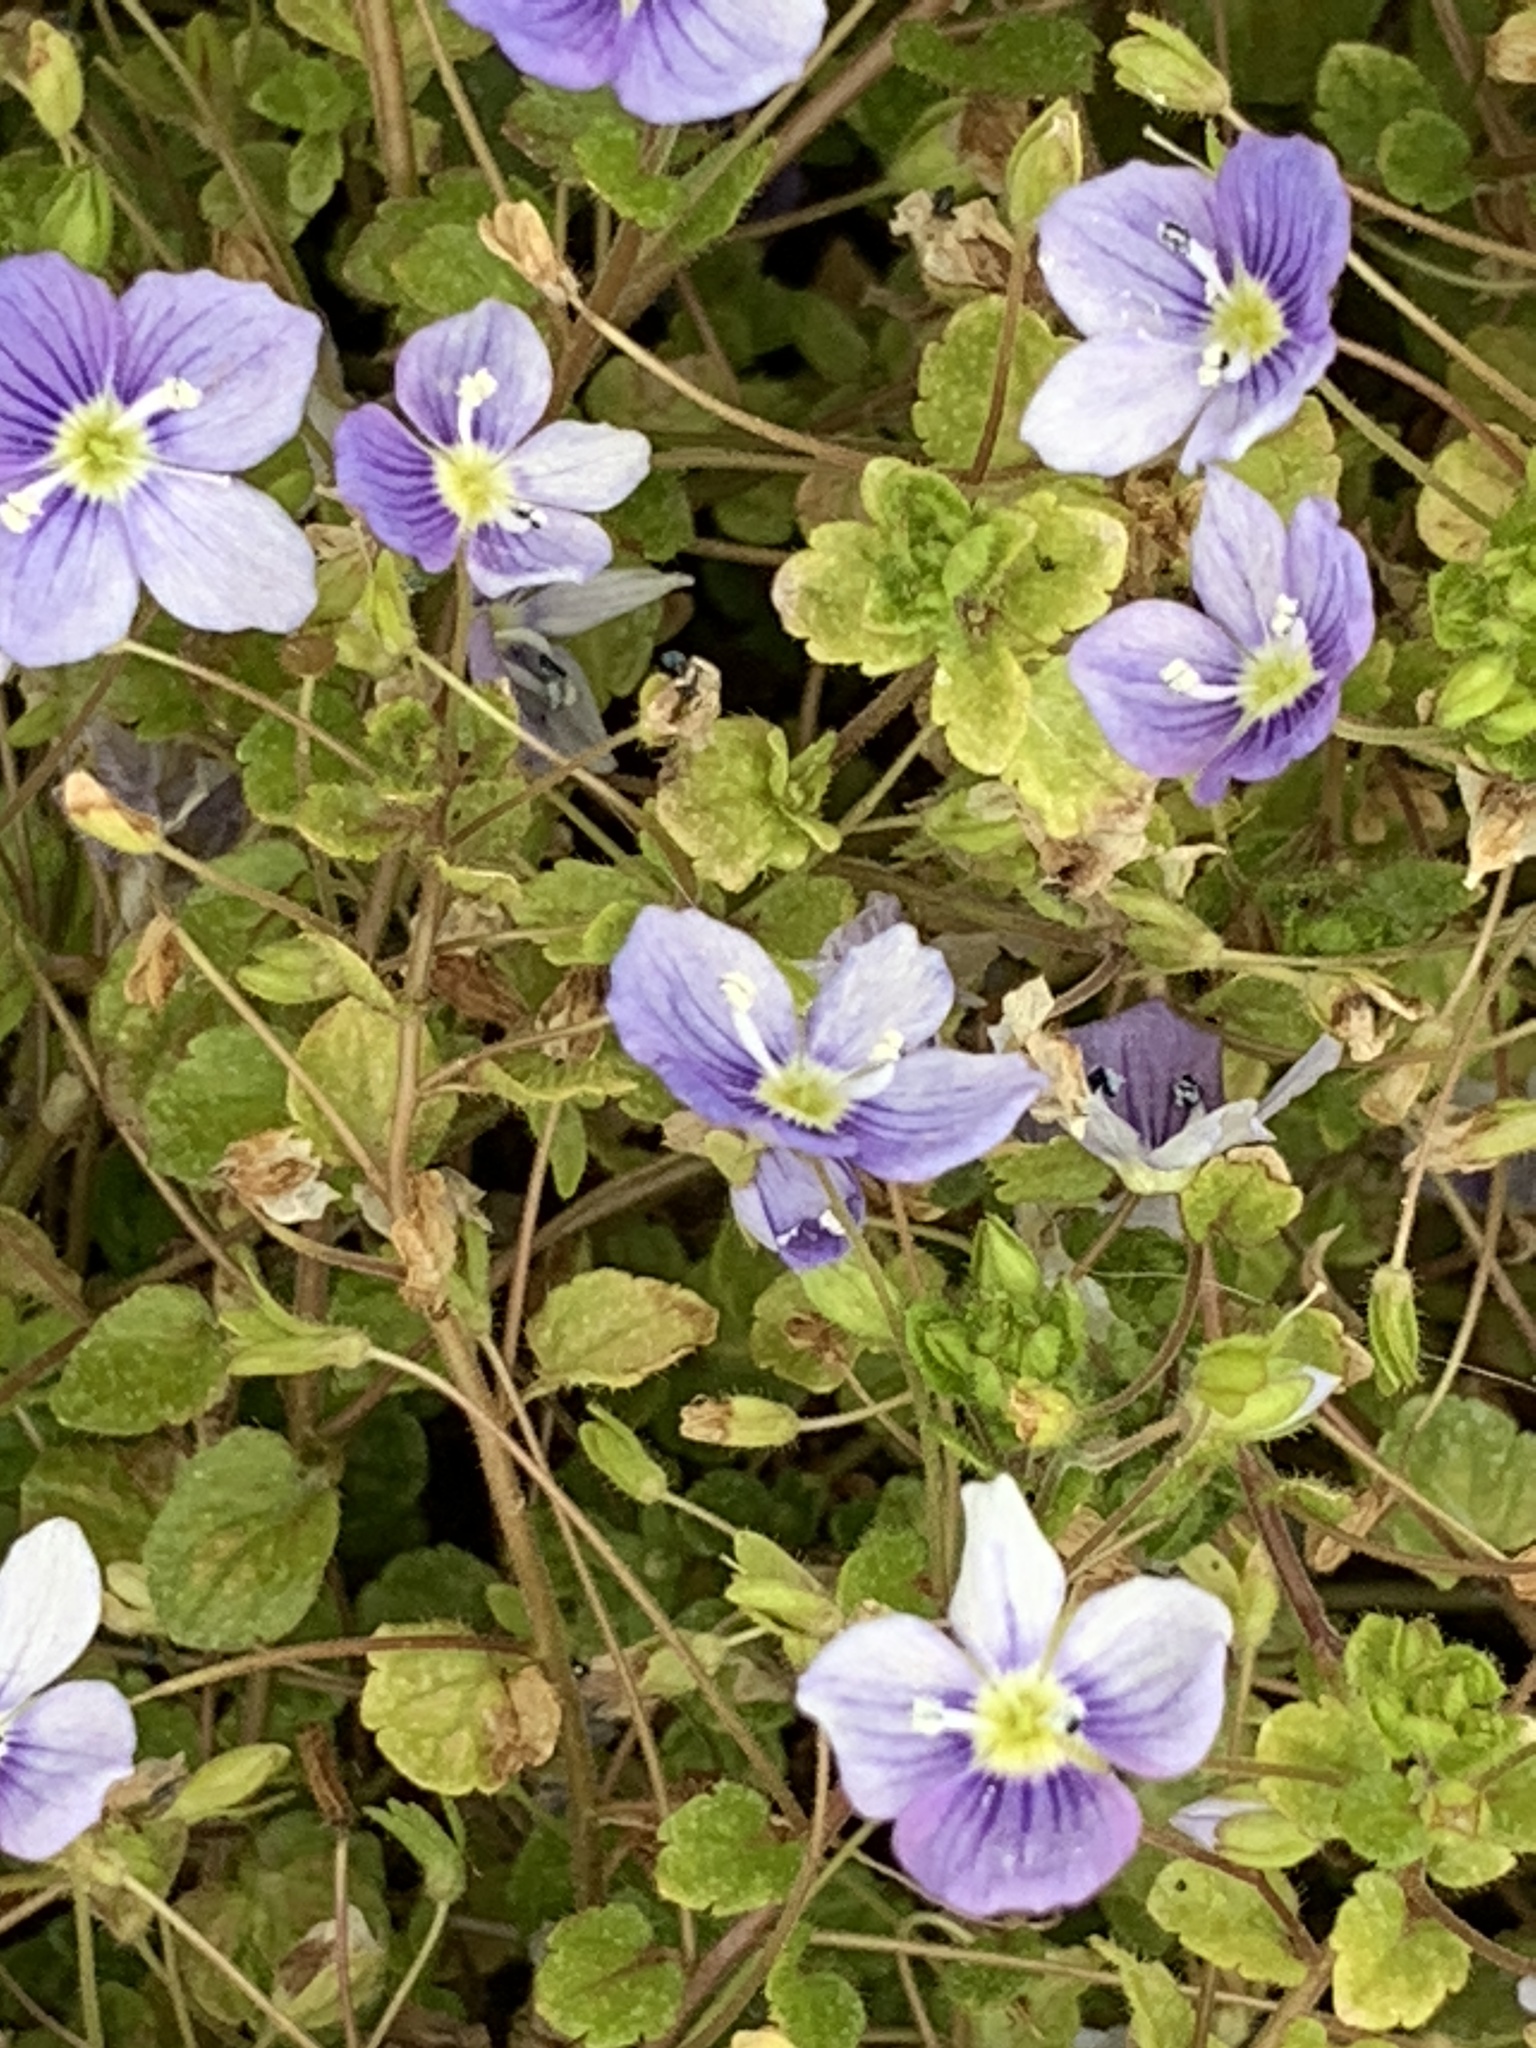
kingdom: Plantae
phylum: Tracheophyta
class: Magnoliopsida
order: Lamiales
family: Plantaginaceae
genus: Veronica
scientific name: Veronica filiformis
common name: Slender speedwell
